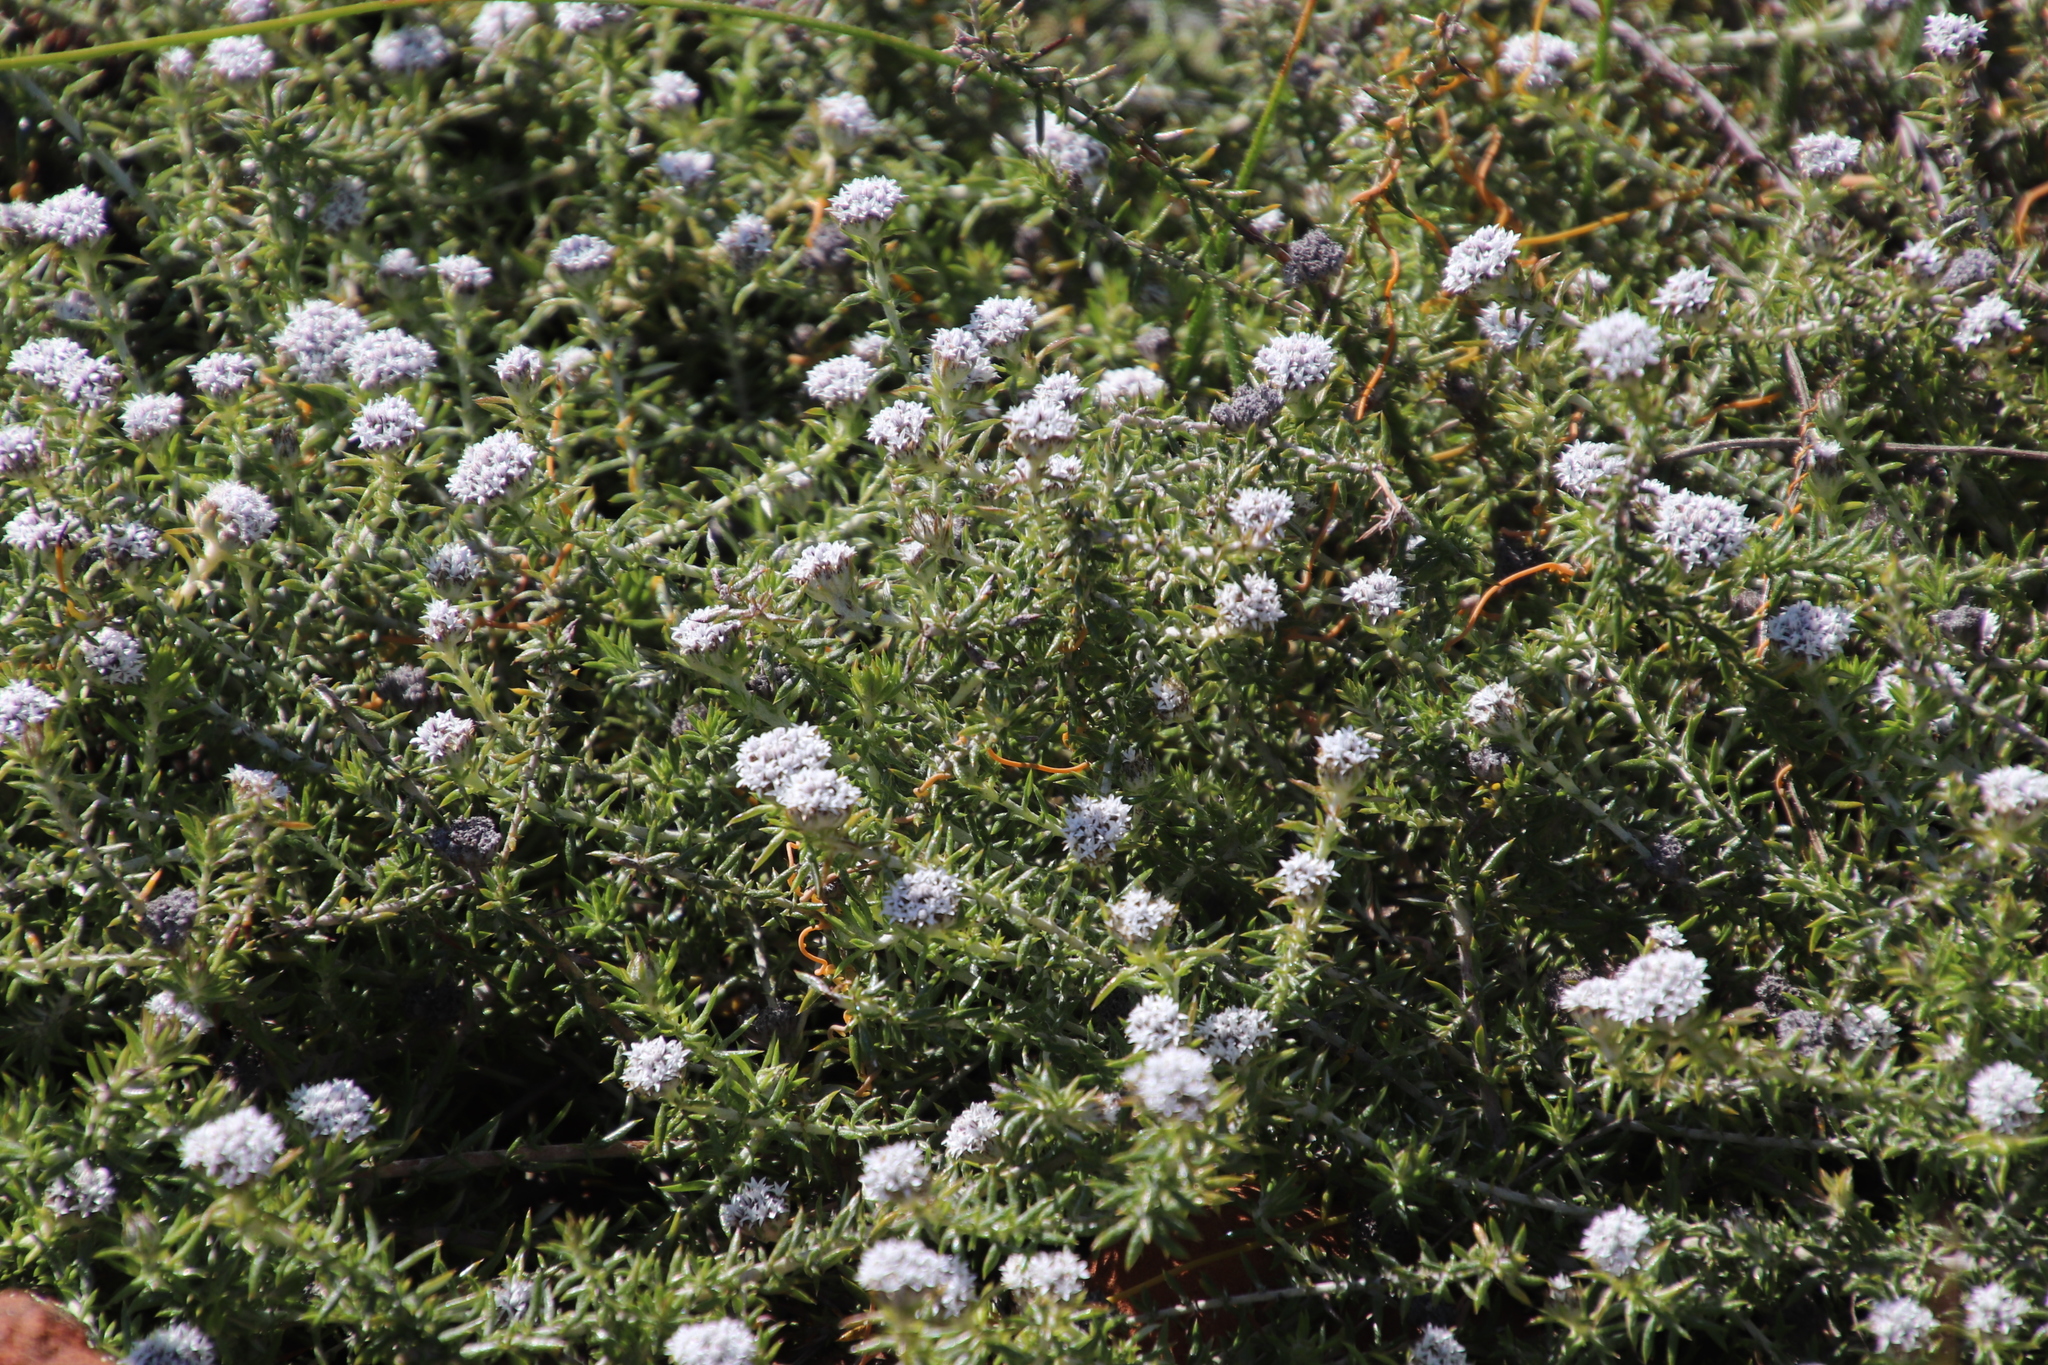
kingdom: Plantae
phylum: Tracheophyta
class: Magnoliopsida
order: Asterales
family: Asteraceae
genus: Metalasia
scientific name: Metalasia pulchella
